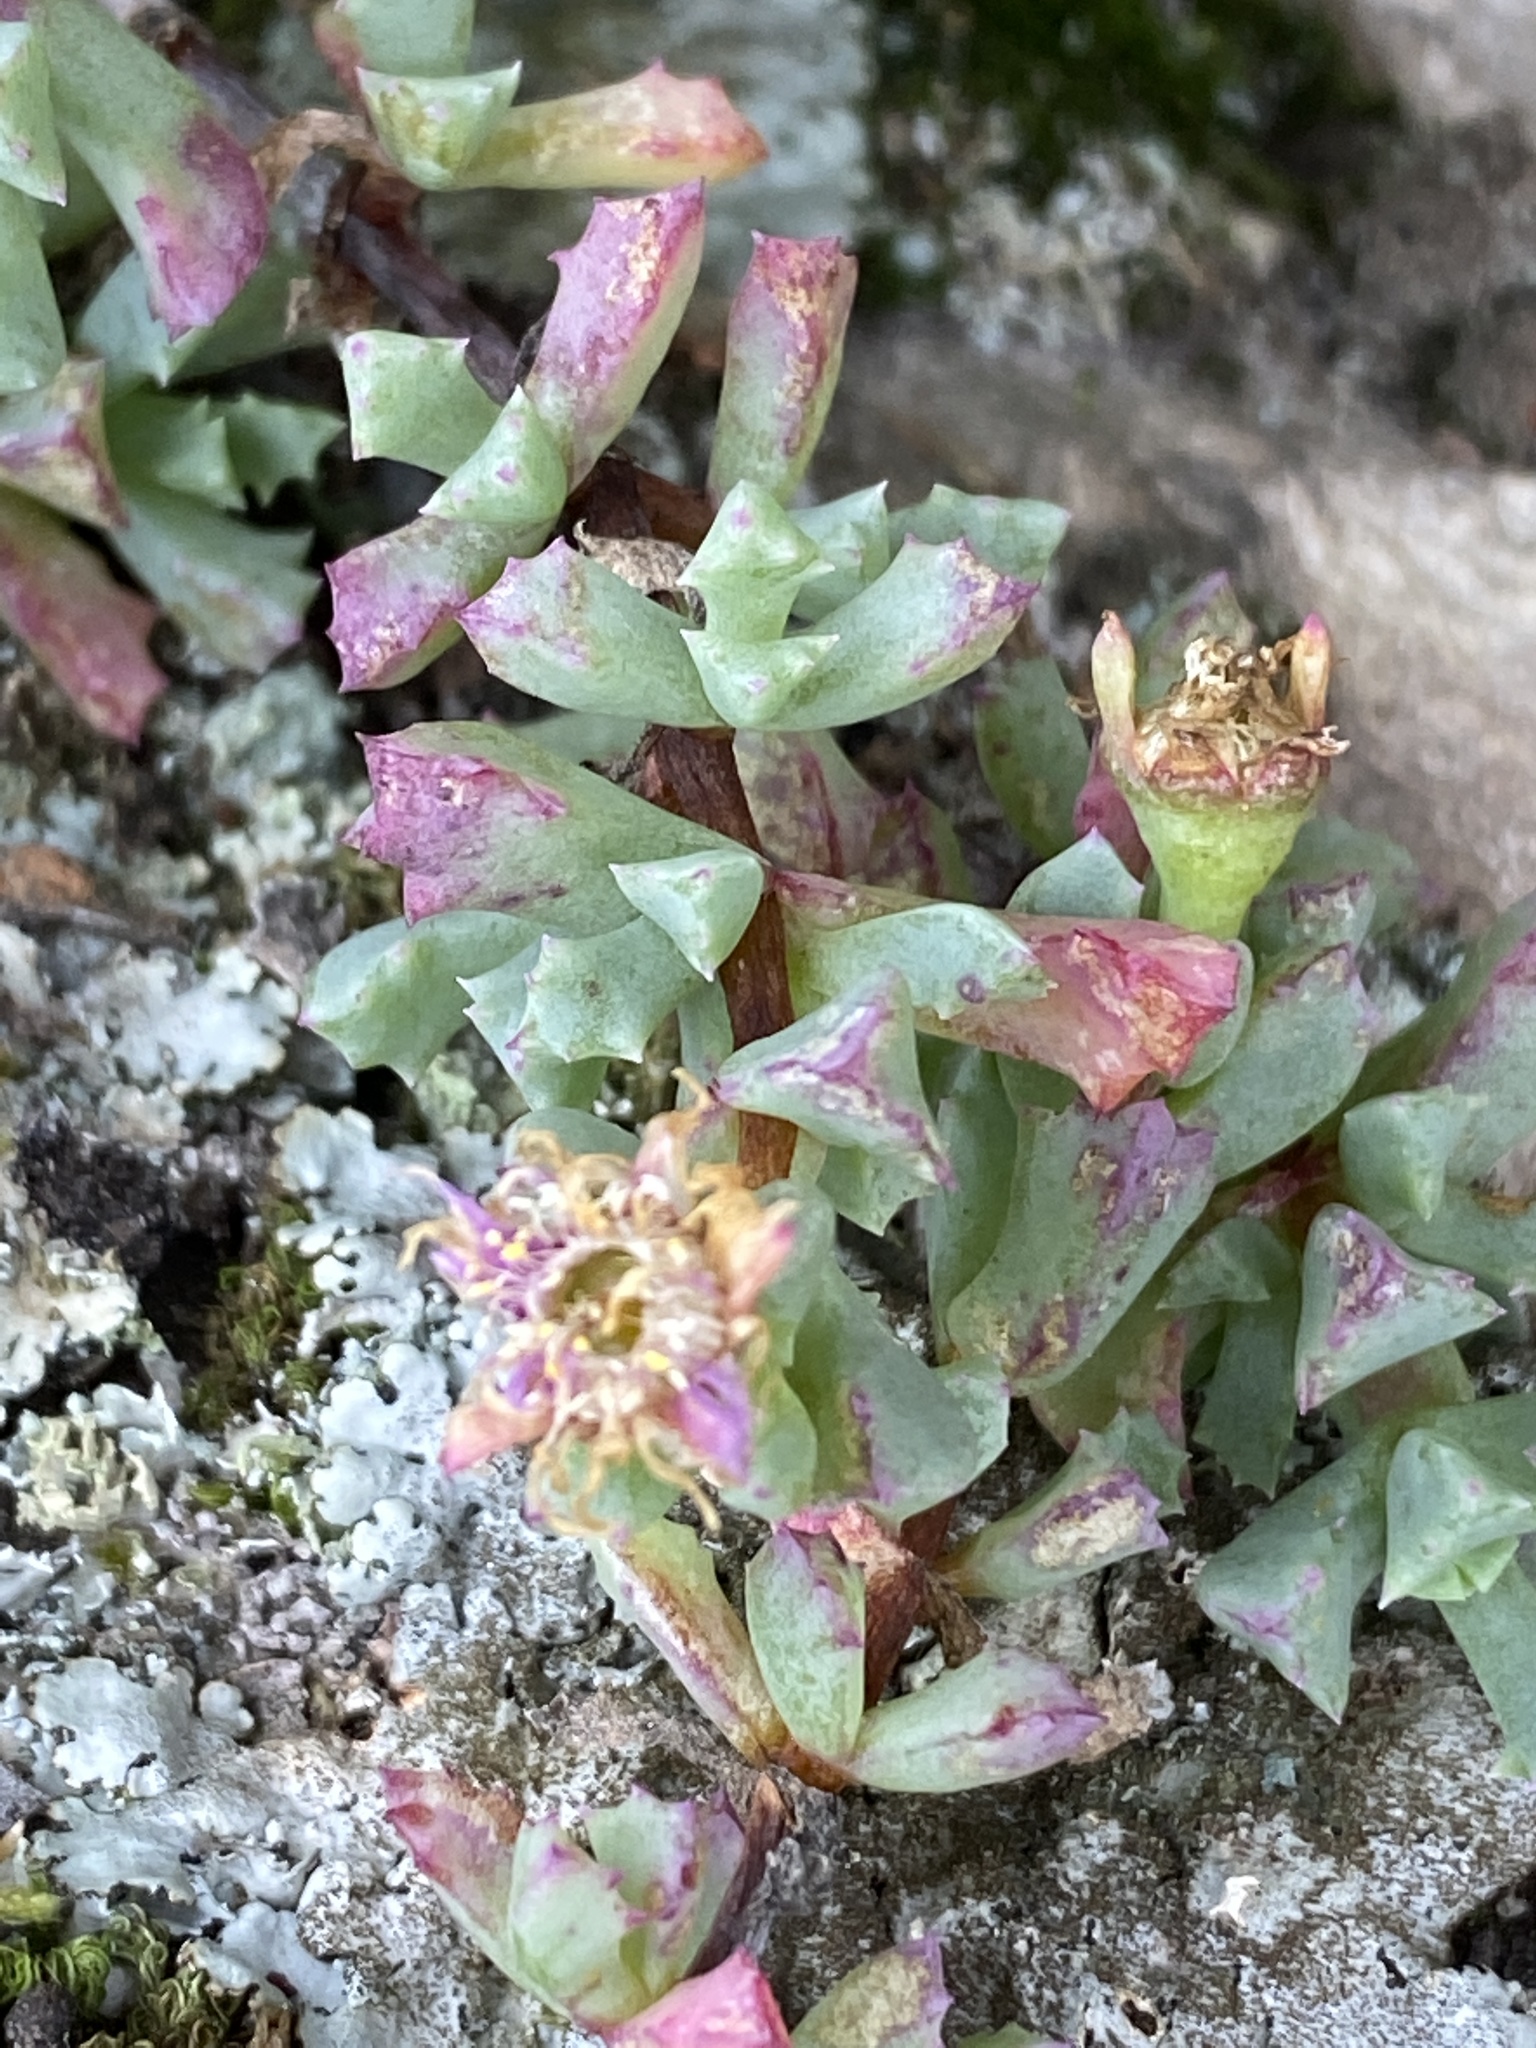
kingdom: Plantae
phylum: Tracheophyta
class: Magnoliopsida
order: Caryophyllales
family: Aizoaceae
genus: Oscularia
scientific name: Oscularia deltoides
